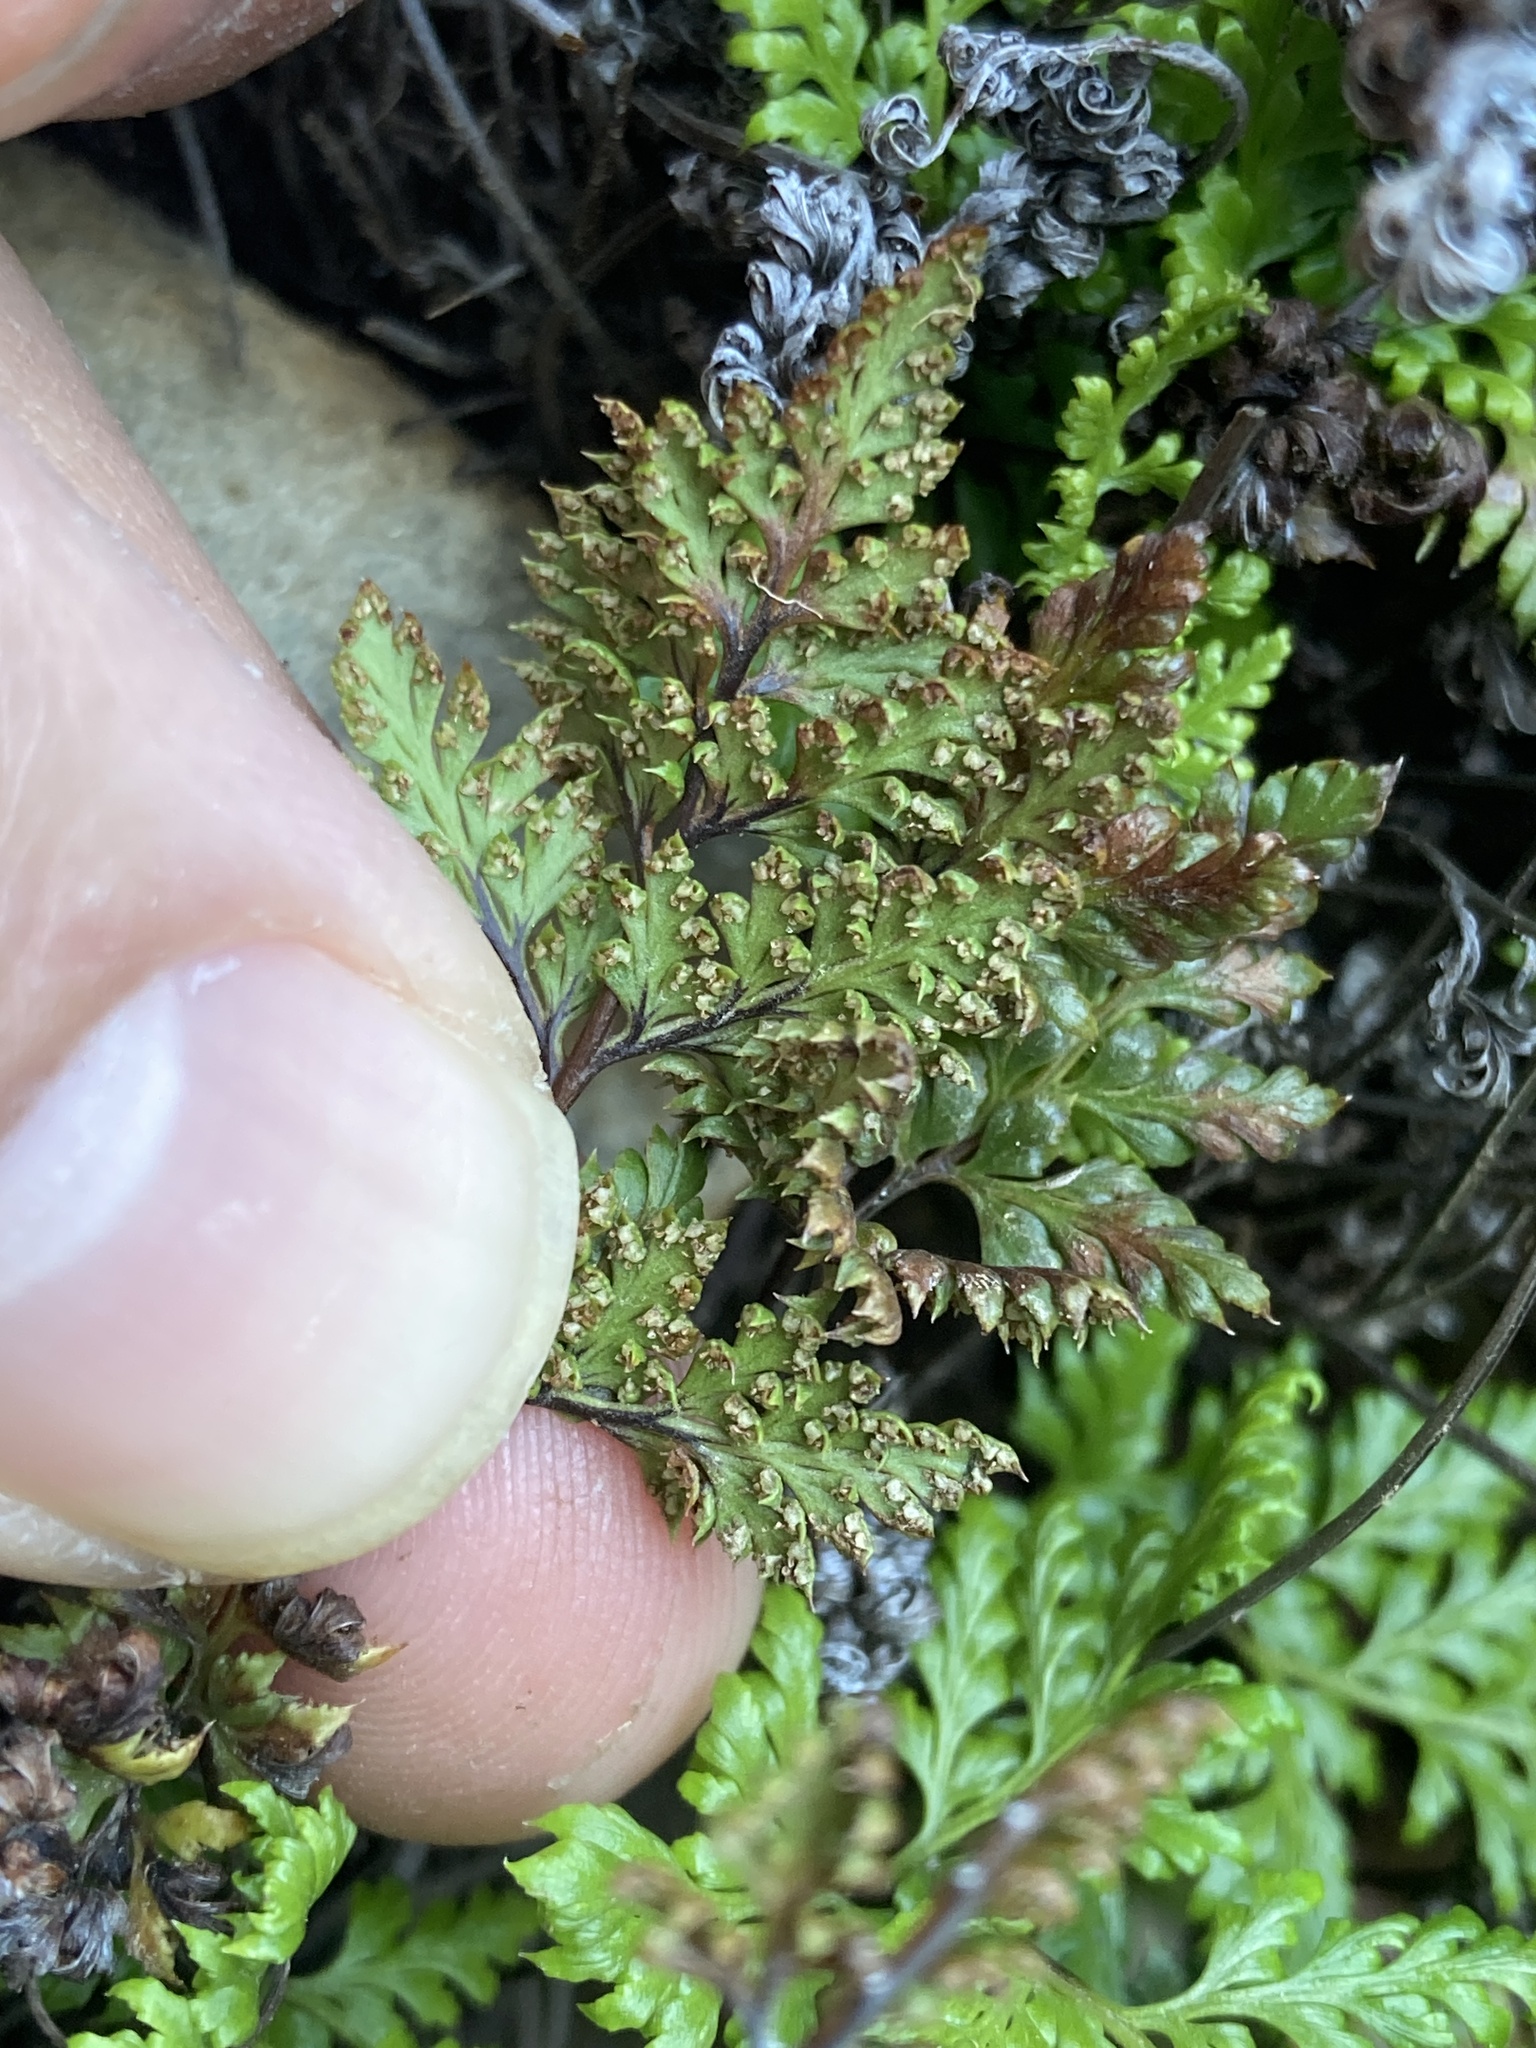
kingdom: Plantae
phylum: Tracheophyta
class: Polypodiopsida
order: Polypodiales
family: Pteridaceae
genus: Aspidotis
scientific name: Aspidotis californica
